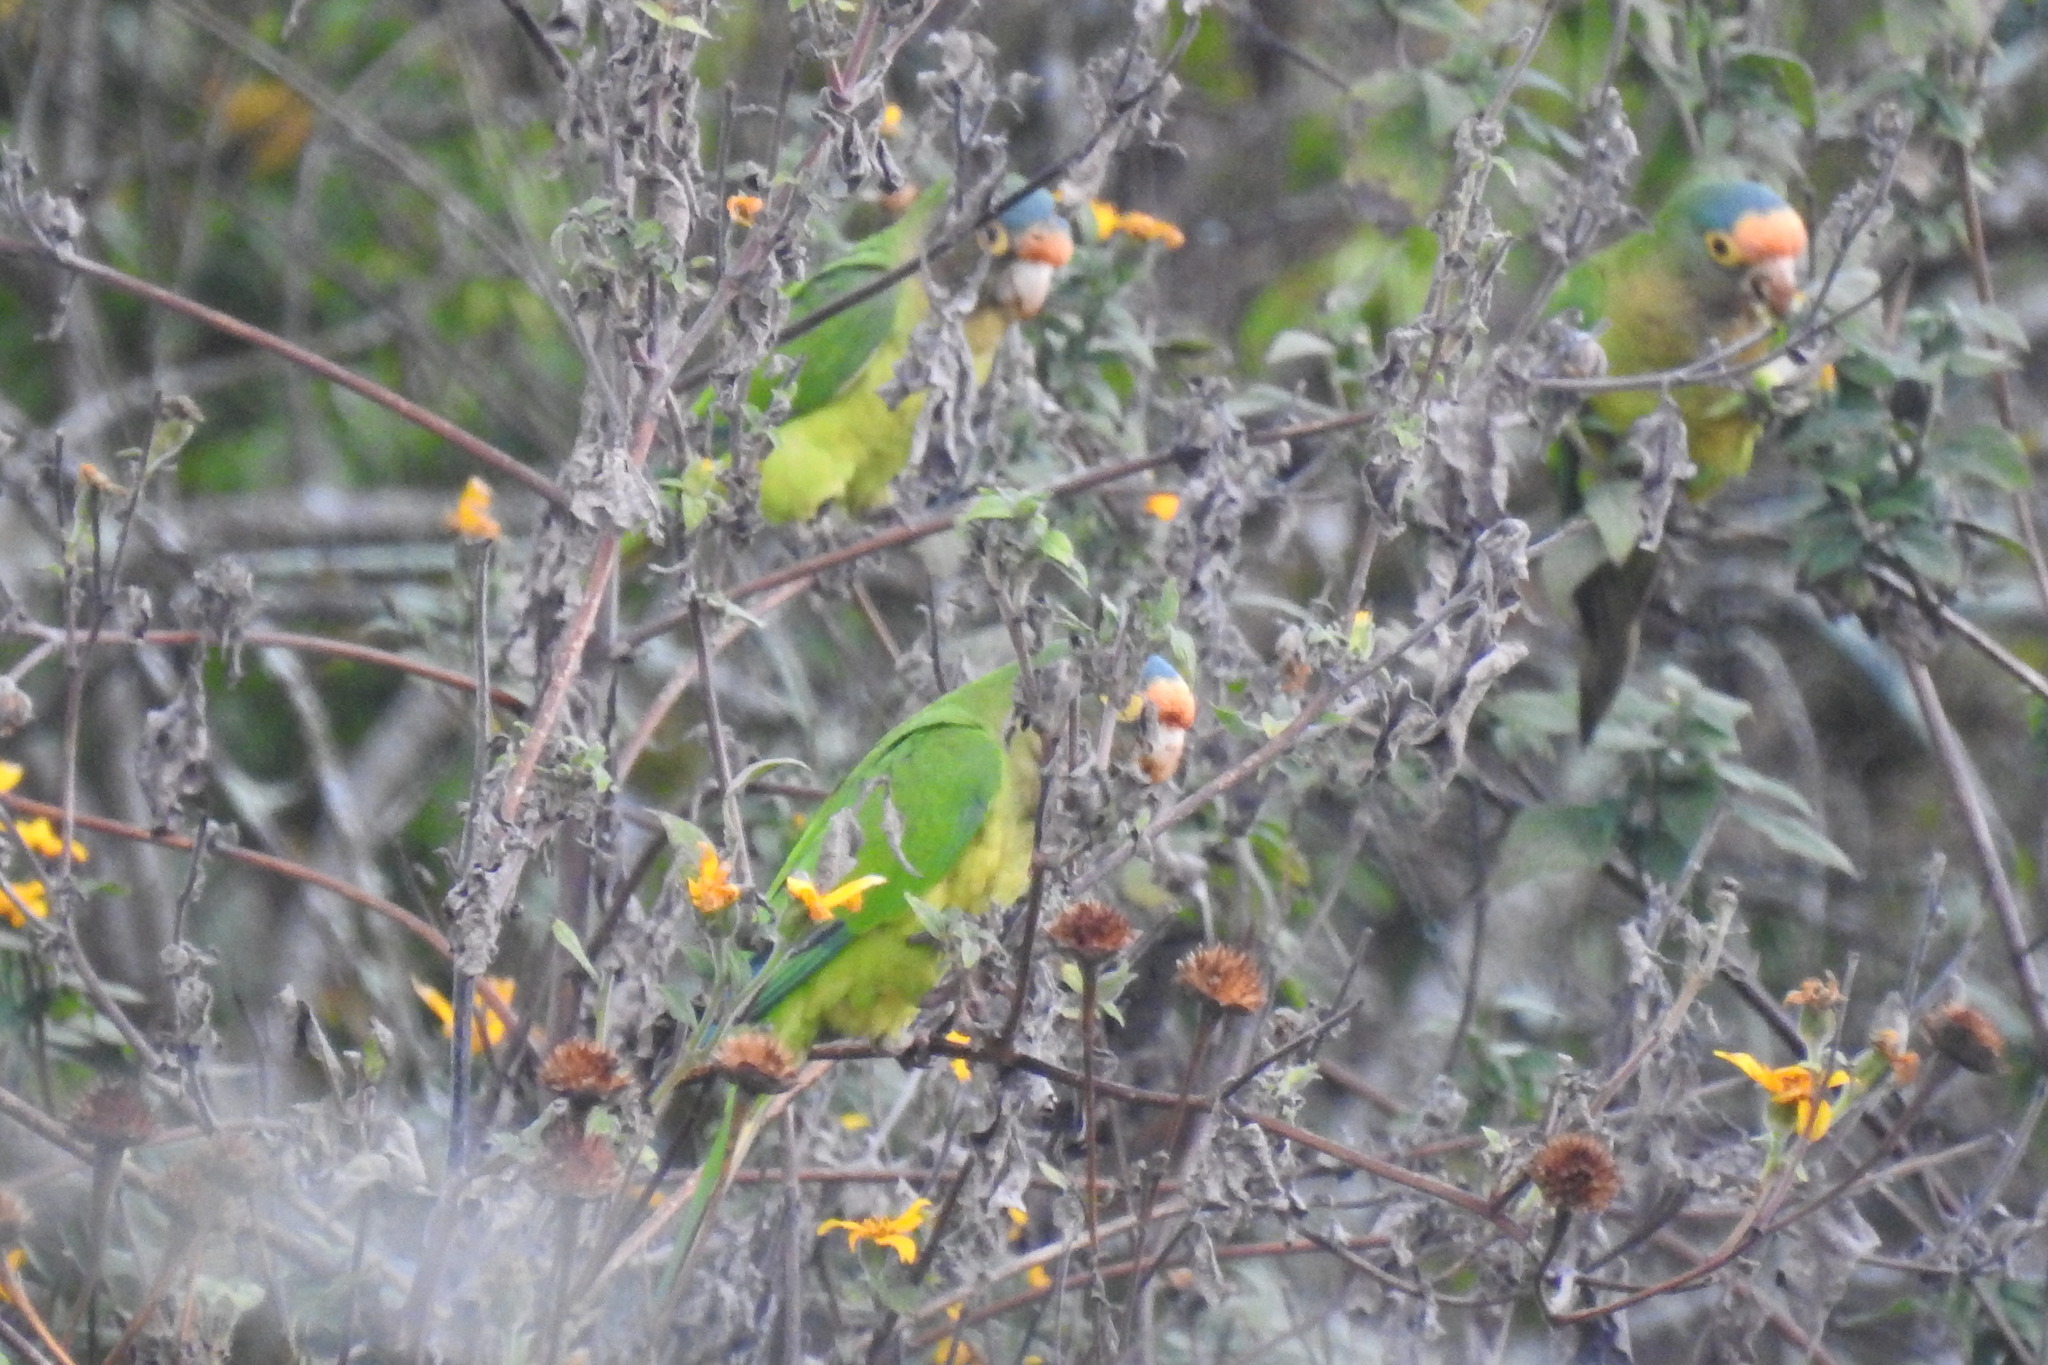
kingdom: Animalia
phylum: Chordata
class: Aves
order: Psittaciformes
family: Psittacidae
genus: Aratinga
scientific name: Aratinga canicularis
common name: Orange-fronted parakeet
